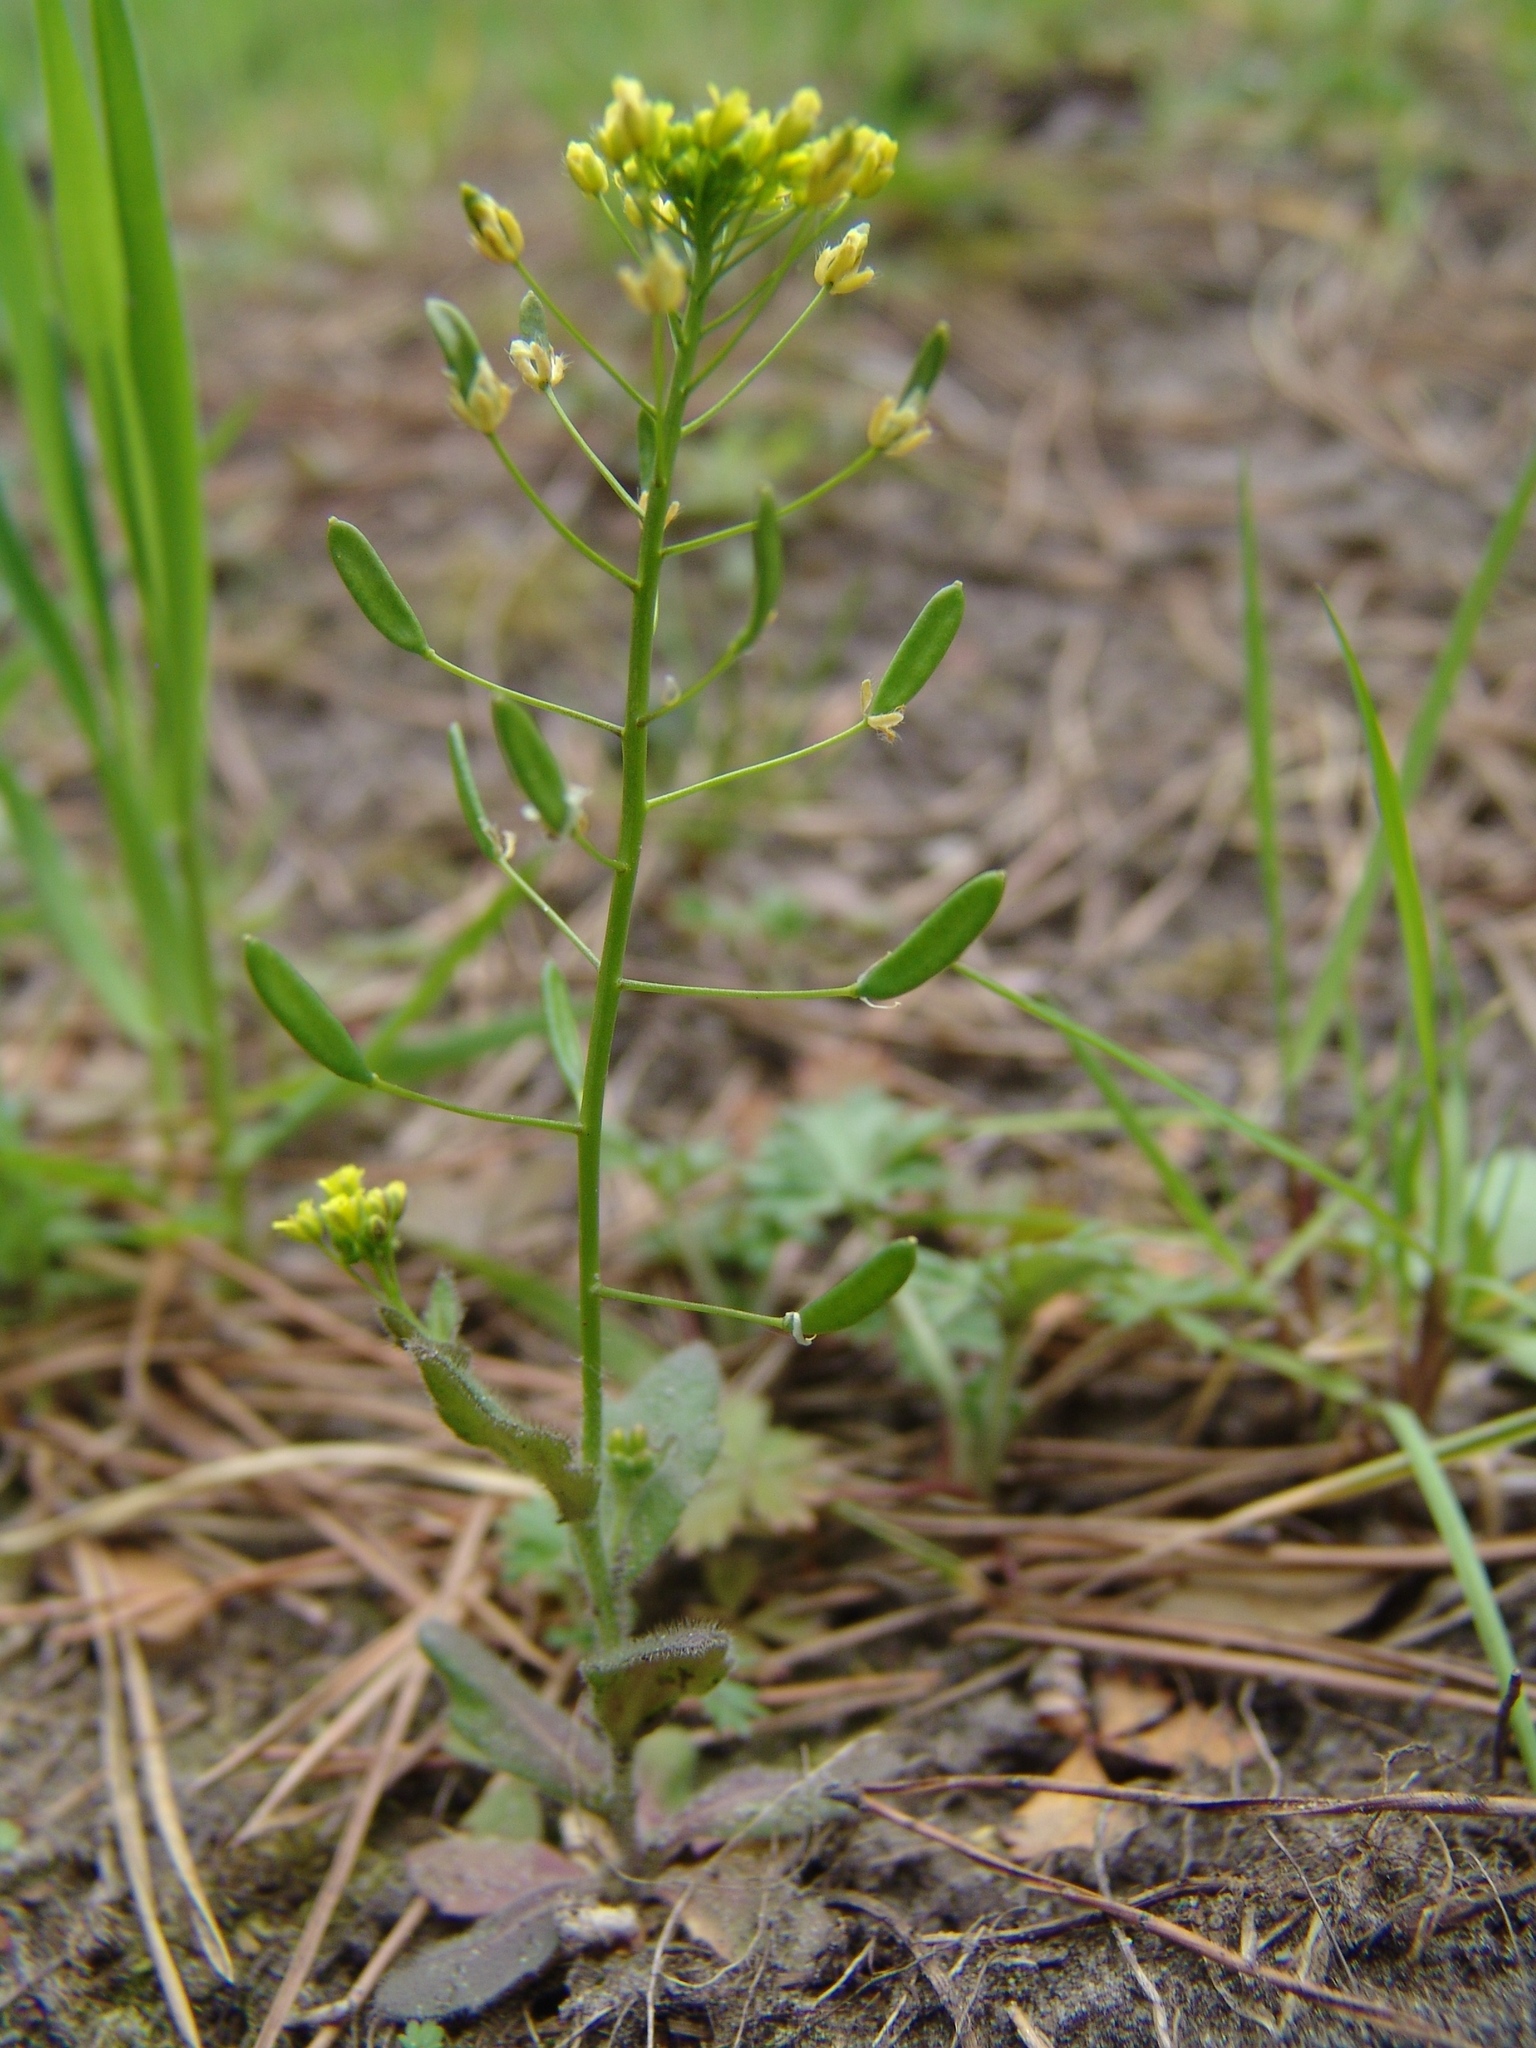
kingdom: Plantae
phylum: Tracheophyta
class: Magnoliopsida
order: Brassicales
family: Brassicaceae
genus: Draba
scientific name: Draba nemorosa
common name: Wood whitlow-grass
